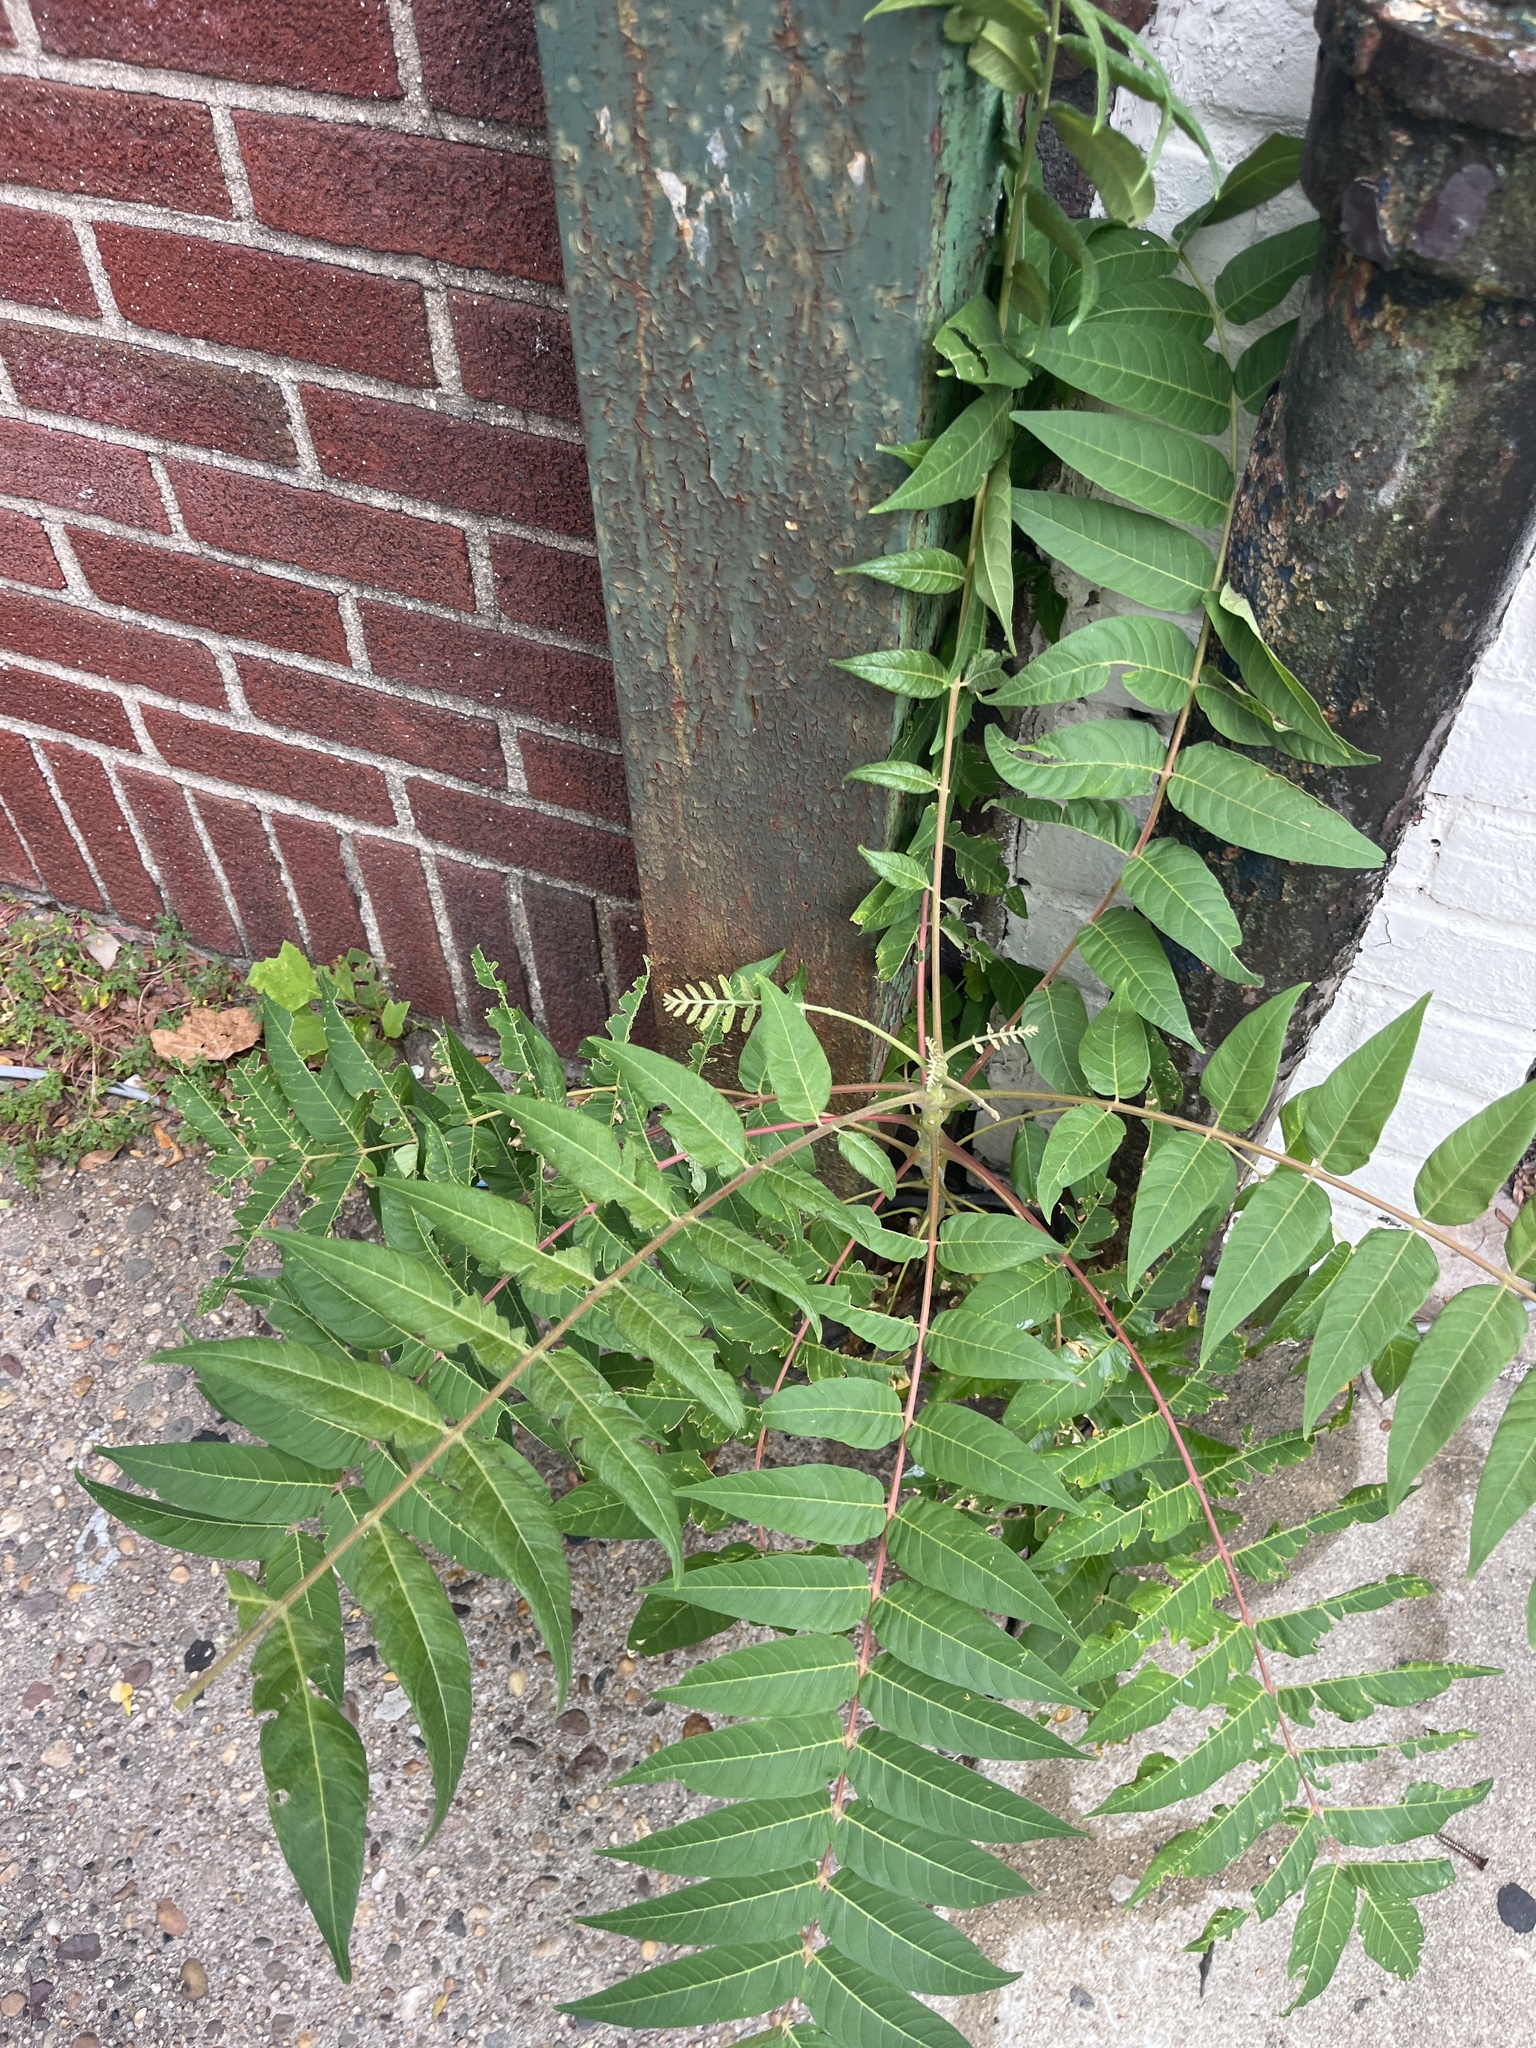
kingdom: Plantae
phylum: Tracheophyta
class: Magnoliopsida
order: Sapindales
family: Simaroubaceae
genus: Ailanthus
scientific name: Ailanthus altissima
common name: Tree-of-heaven
